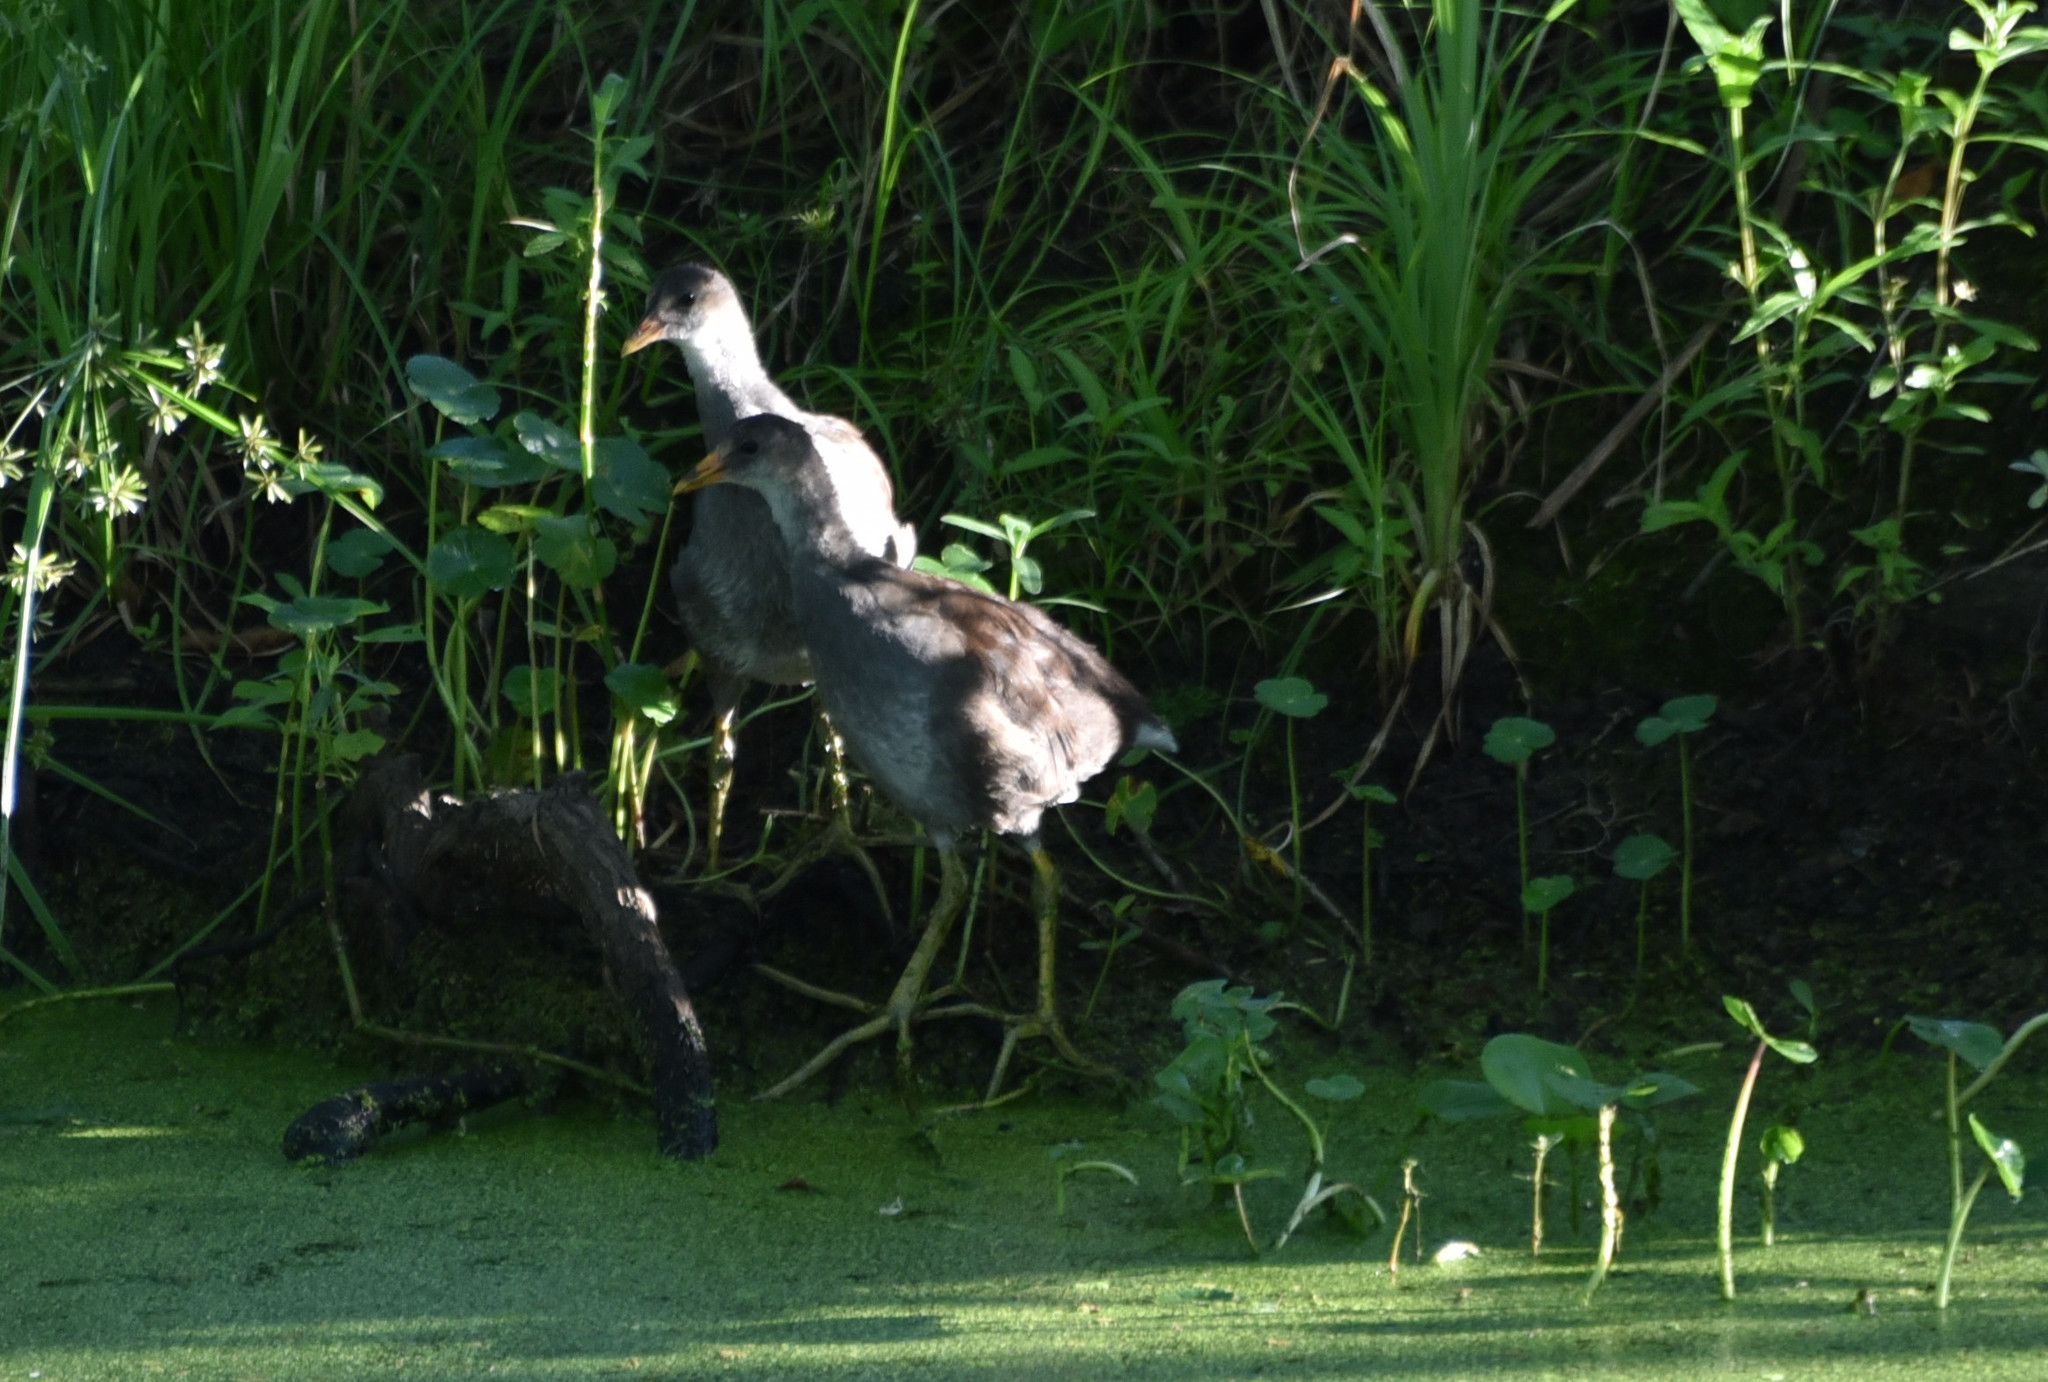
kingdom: Animalia
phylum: Chordata
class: Aves
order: Gruiformes
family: Rallidae
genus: Gallinula
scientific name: Gallinula chloropus
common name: Common moorhen
